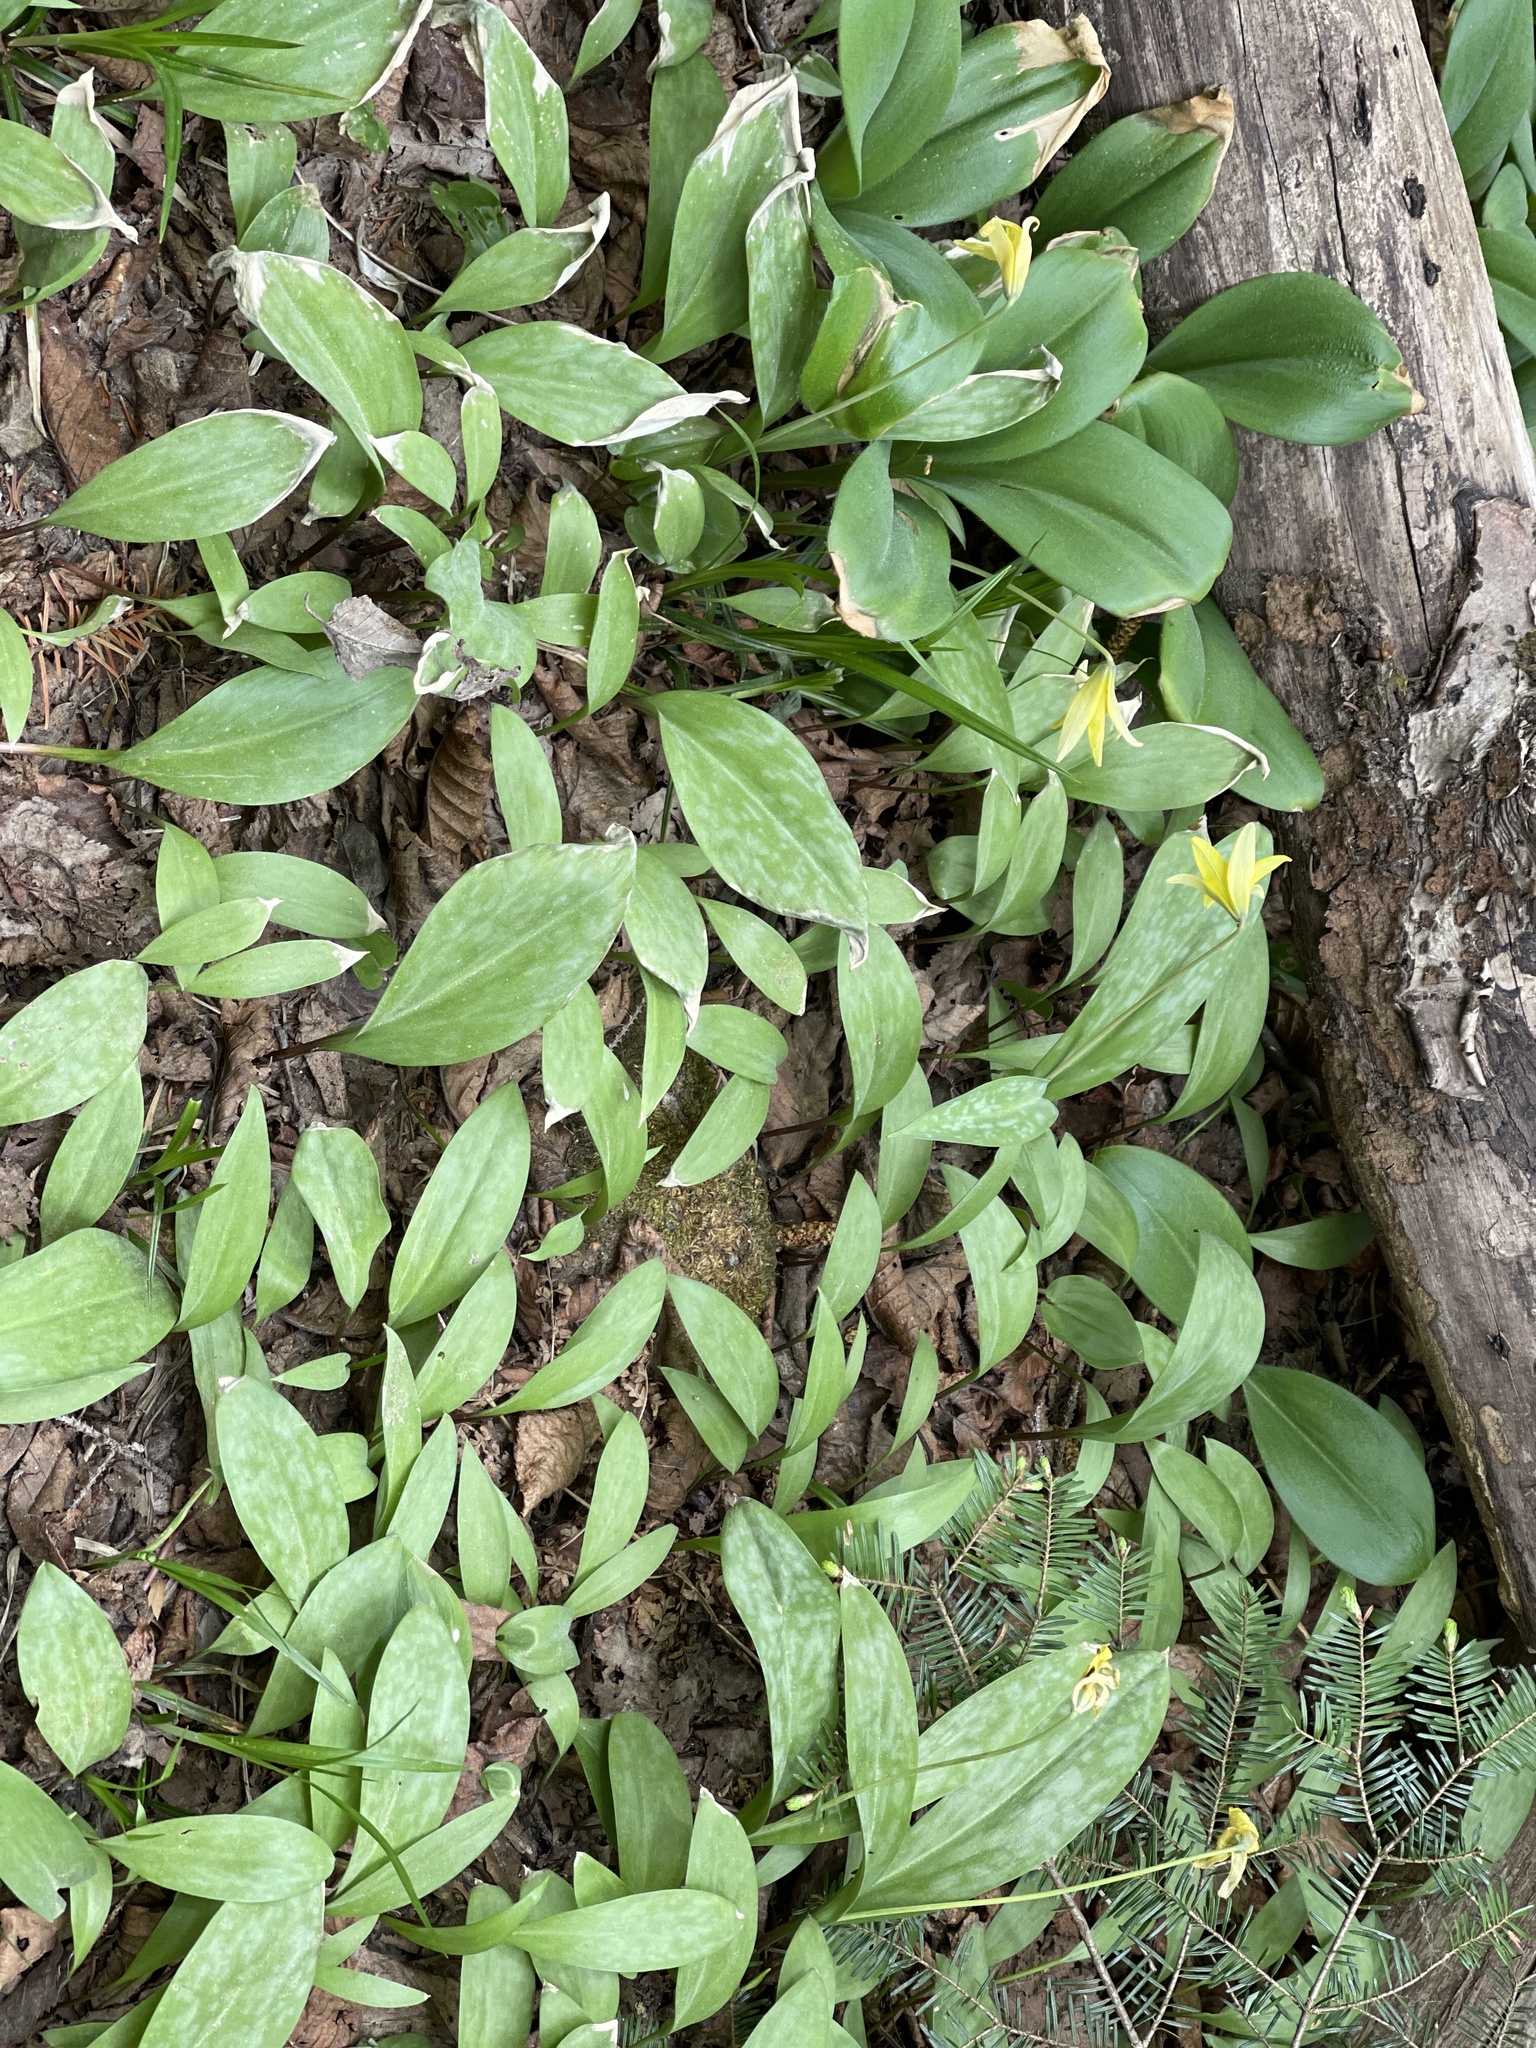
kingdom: Plantae
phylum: Tracheophyta
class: Liliopsida
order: Liliales
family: Liliaceae
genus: Erythronium
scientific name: Erythronium americanum
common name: Yellow adder's-tongue
